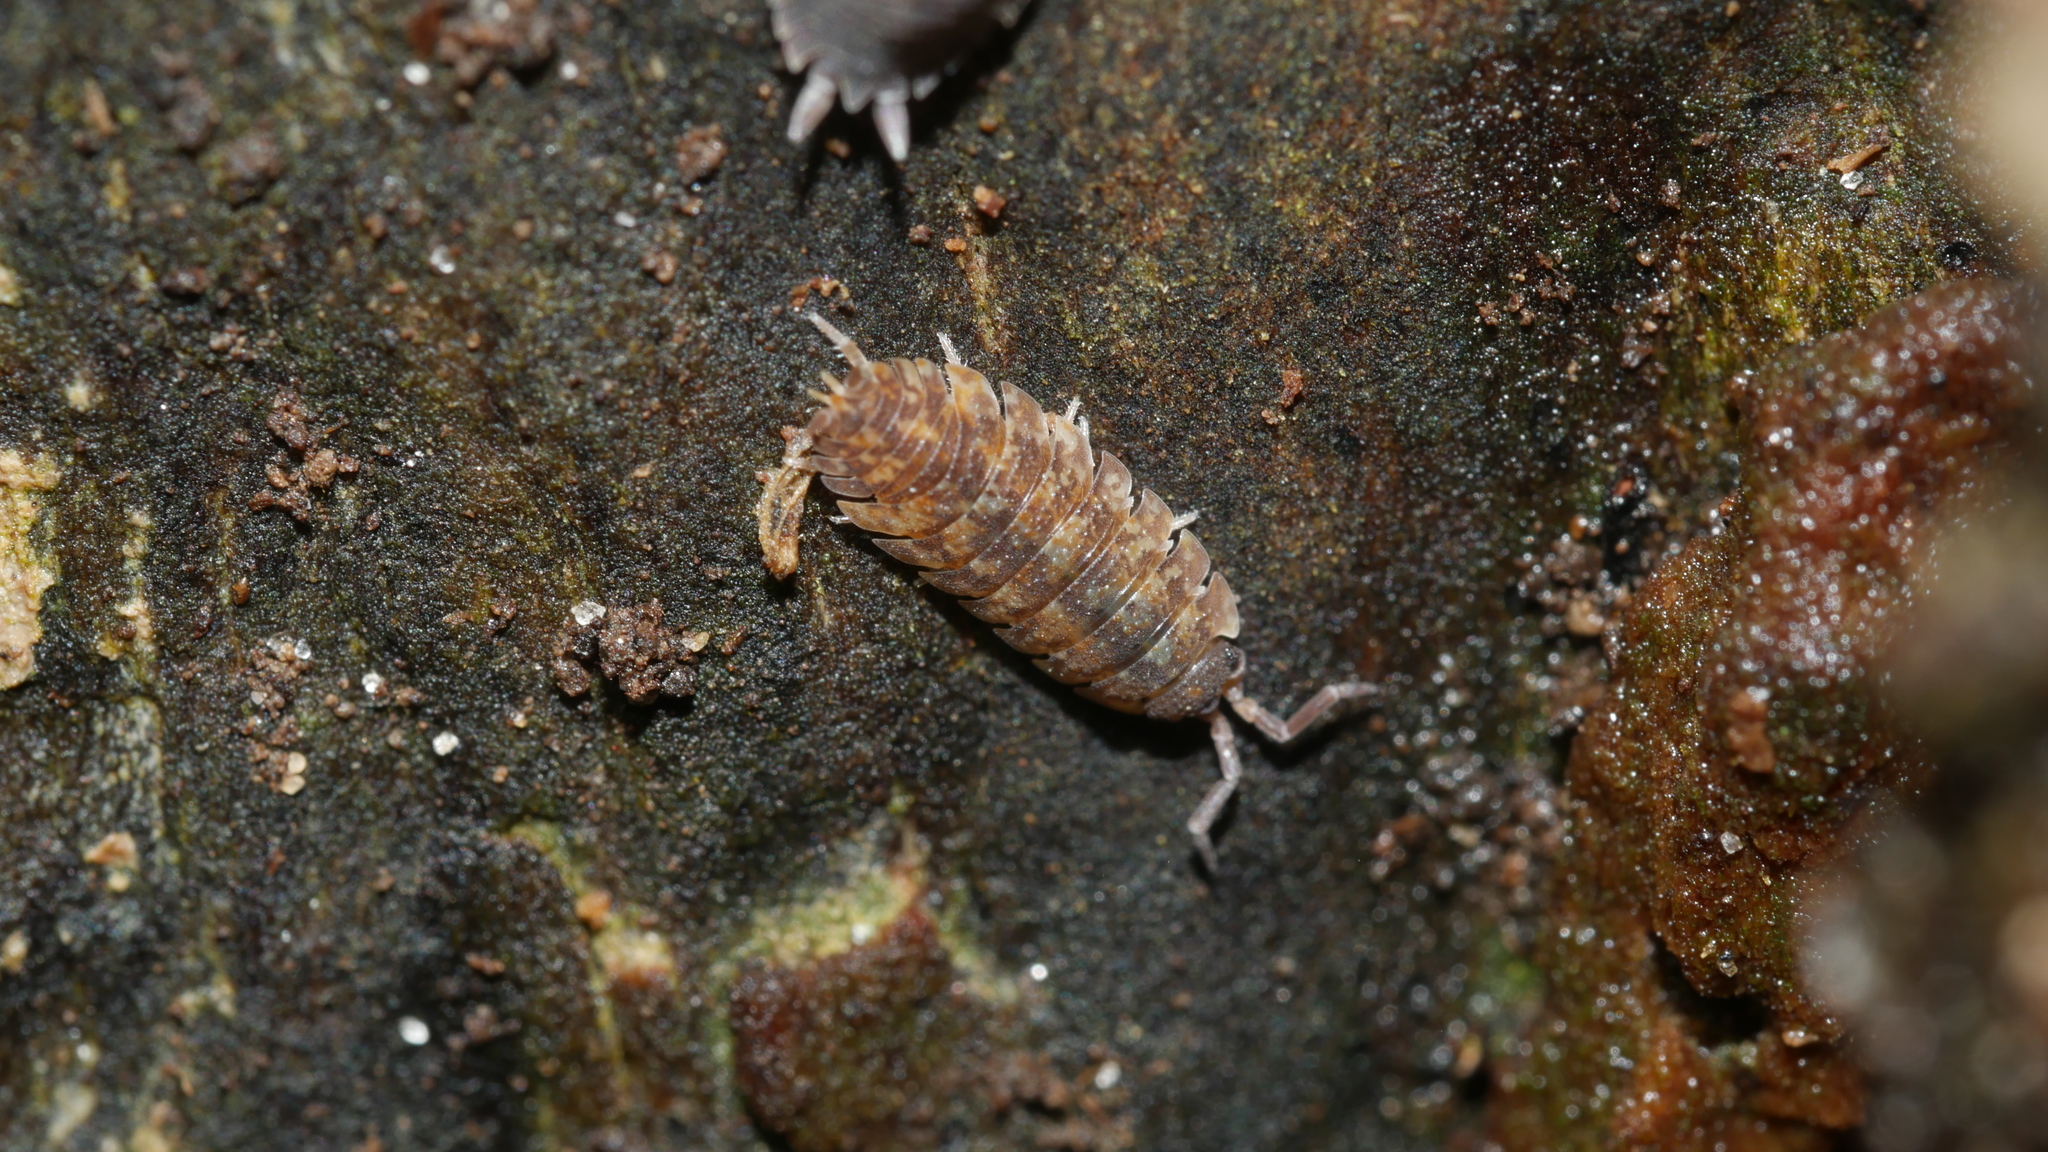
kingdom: Animalia
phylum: Arthropoda
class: Malacostraca
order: Isopoda
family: Porcellionidae
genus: Porcellio
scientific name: Porcellio scaber
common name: Common rough woodlouse
